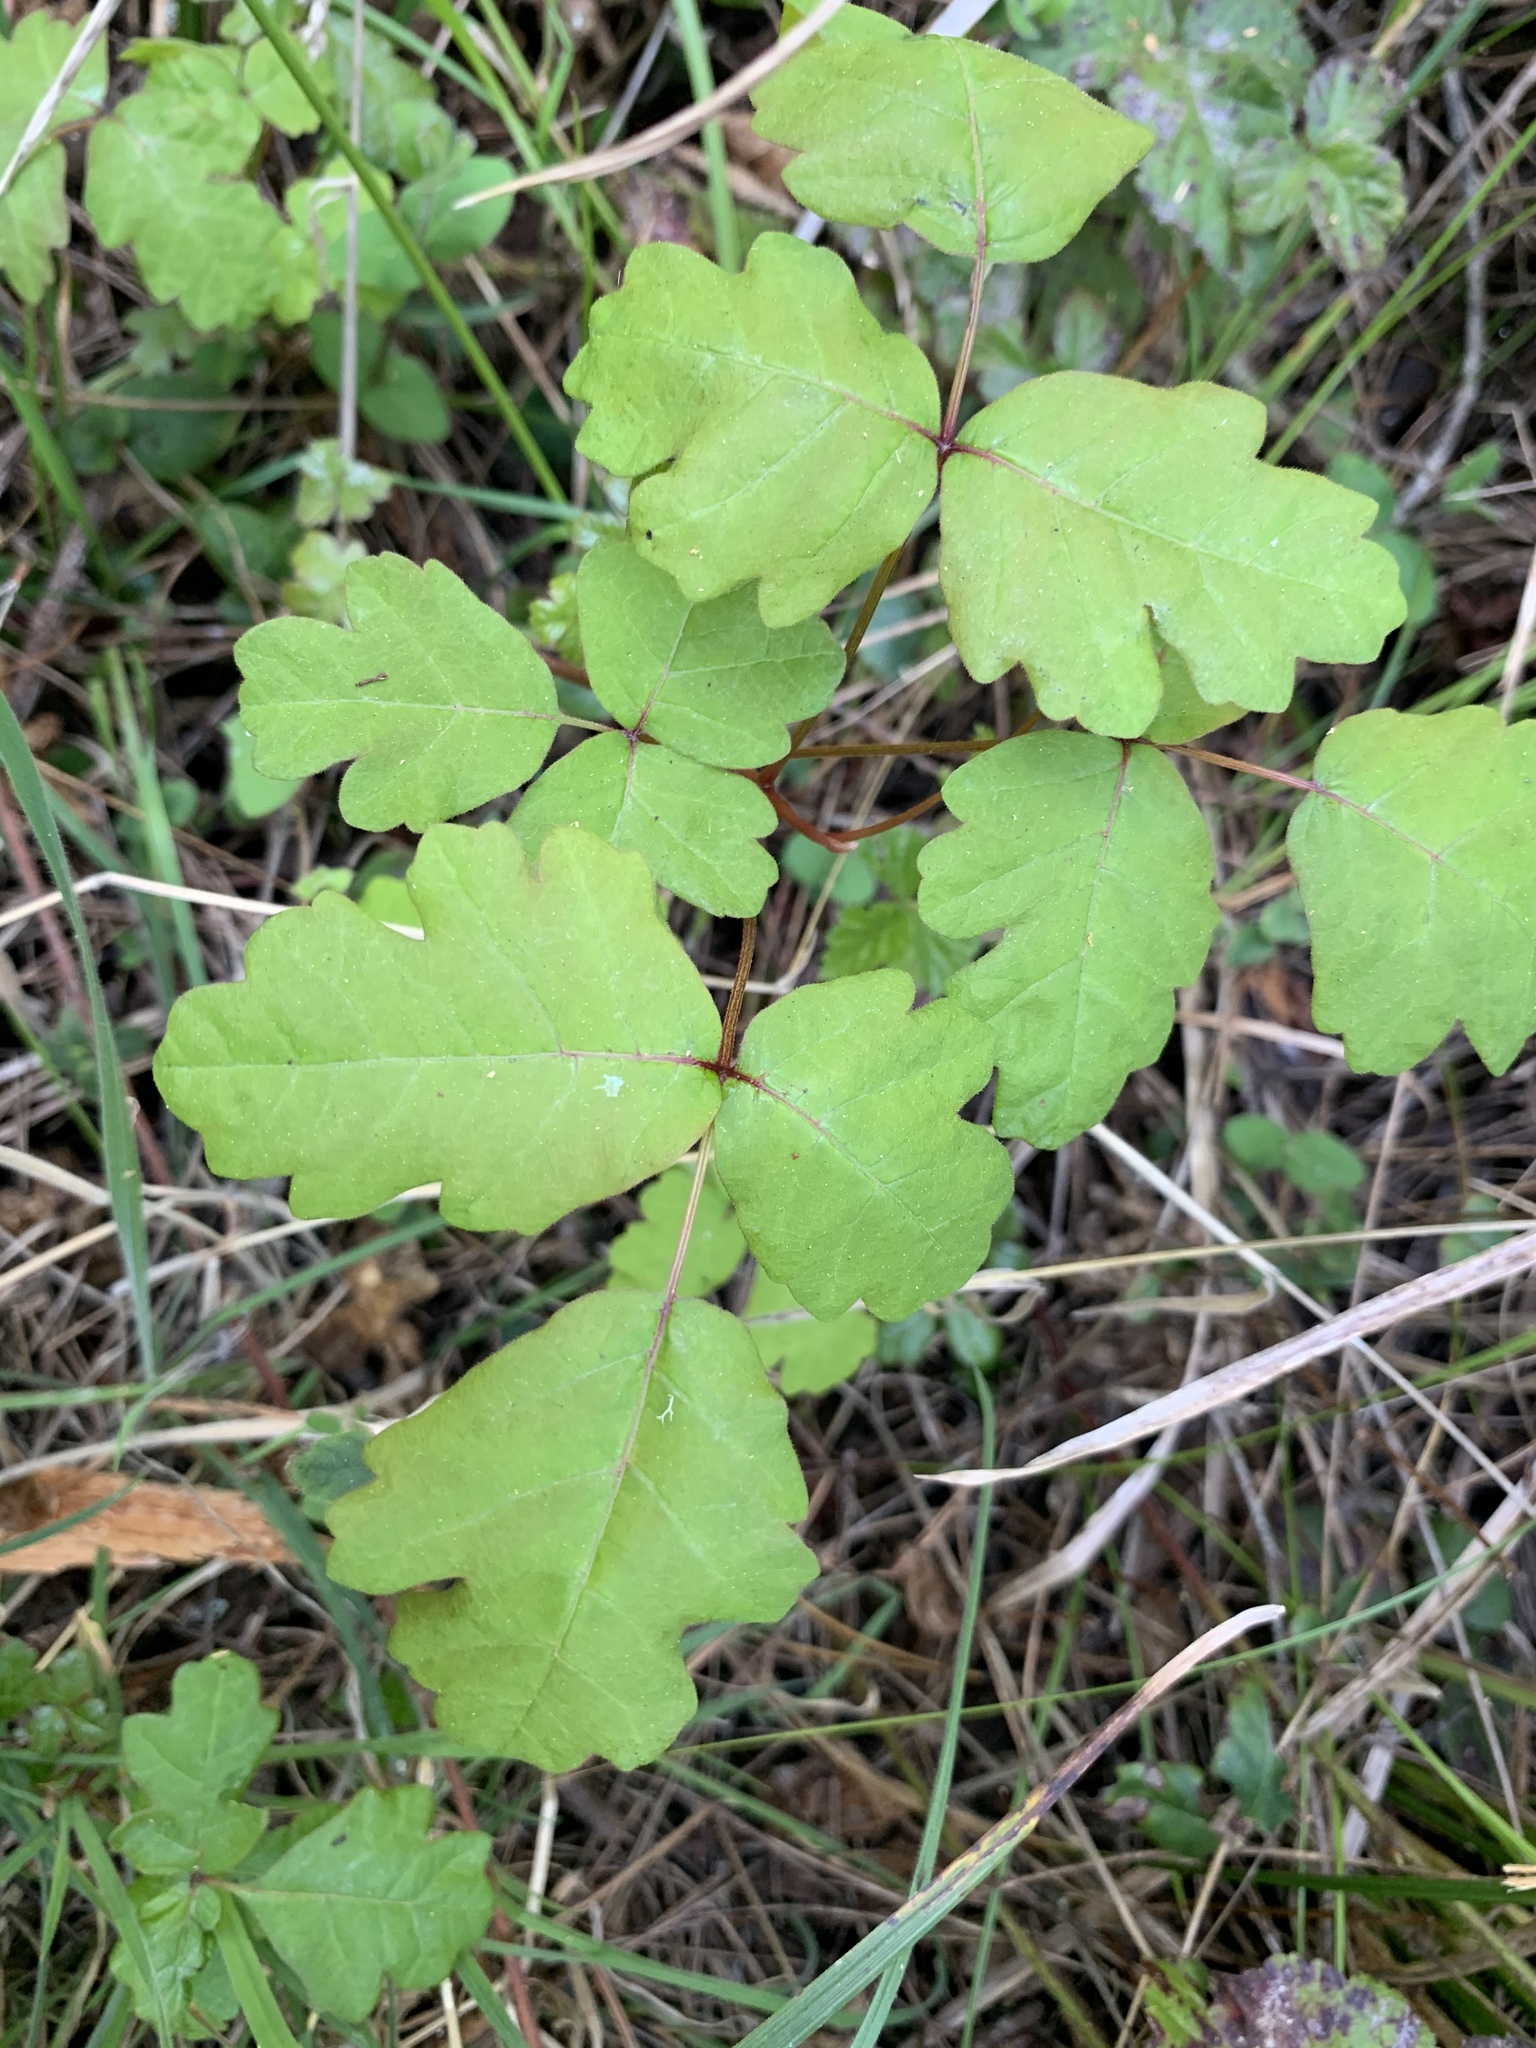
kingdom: Plantae
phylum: Tracheophyta
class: Magnoliopsida
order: Sapindales
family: Anacardiaceae
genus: Toxicodendron
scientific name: Toxicodendron diversilobum
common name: Pacific poison-oak
